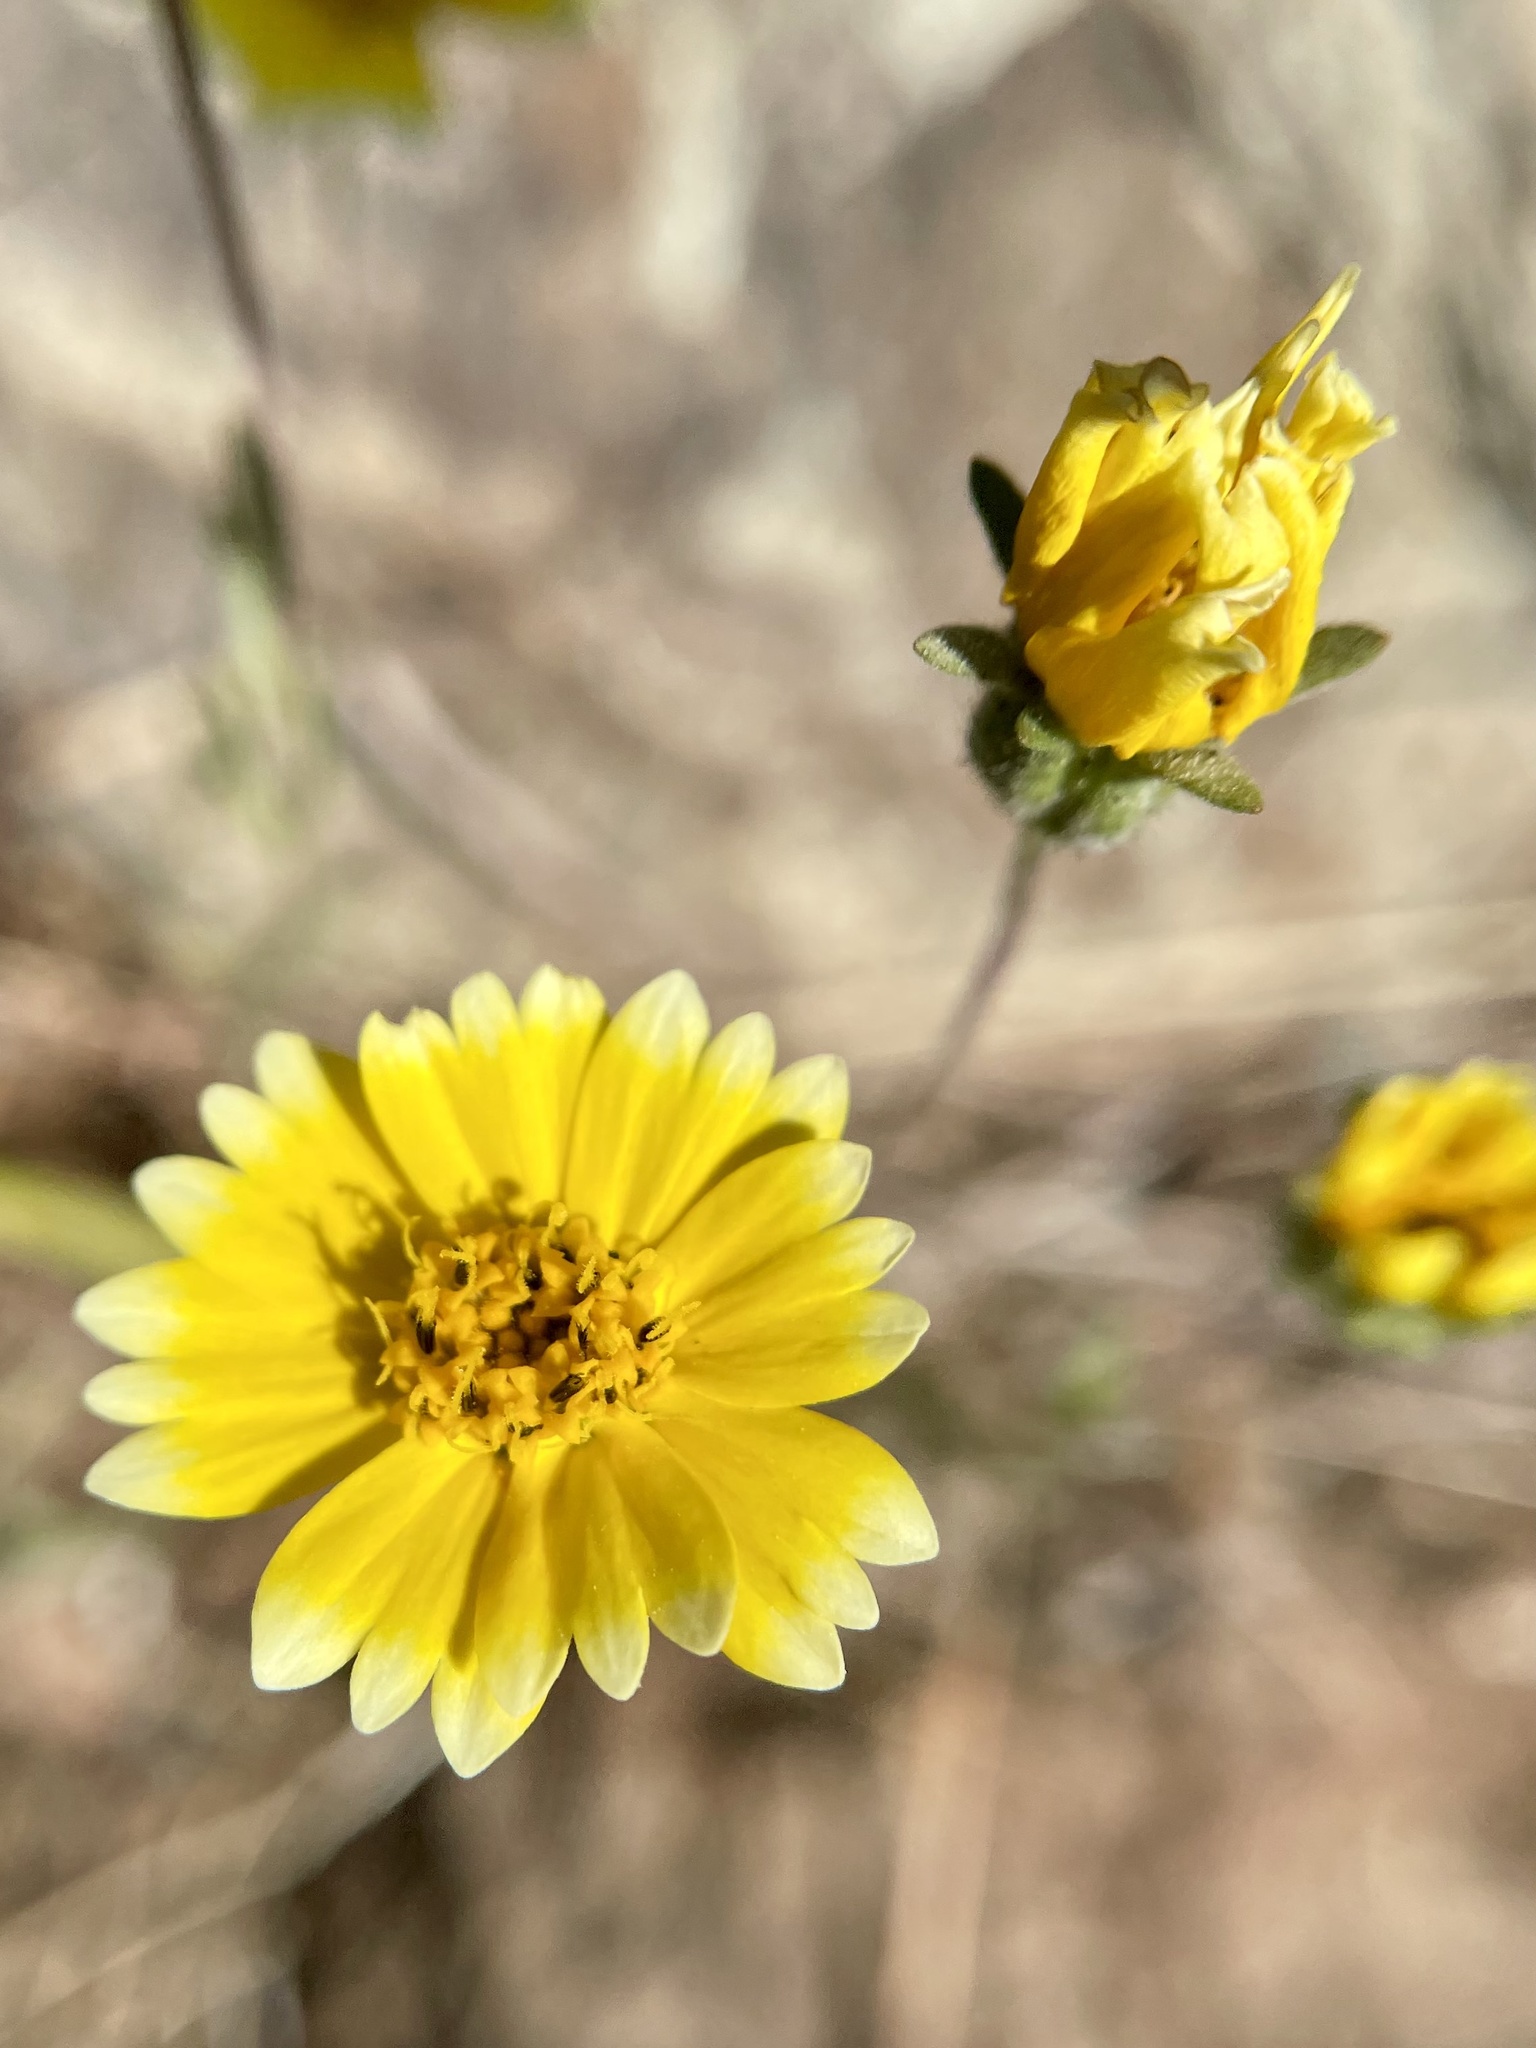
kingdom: Plantae
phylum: Tracheophyta
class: Magnoliopsida
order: Asterales
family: Asteraceae
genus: Layia
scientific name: Layia platyglossa
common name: Tidy-tips
